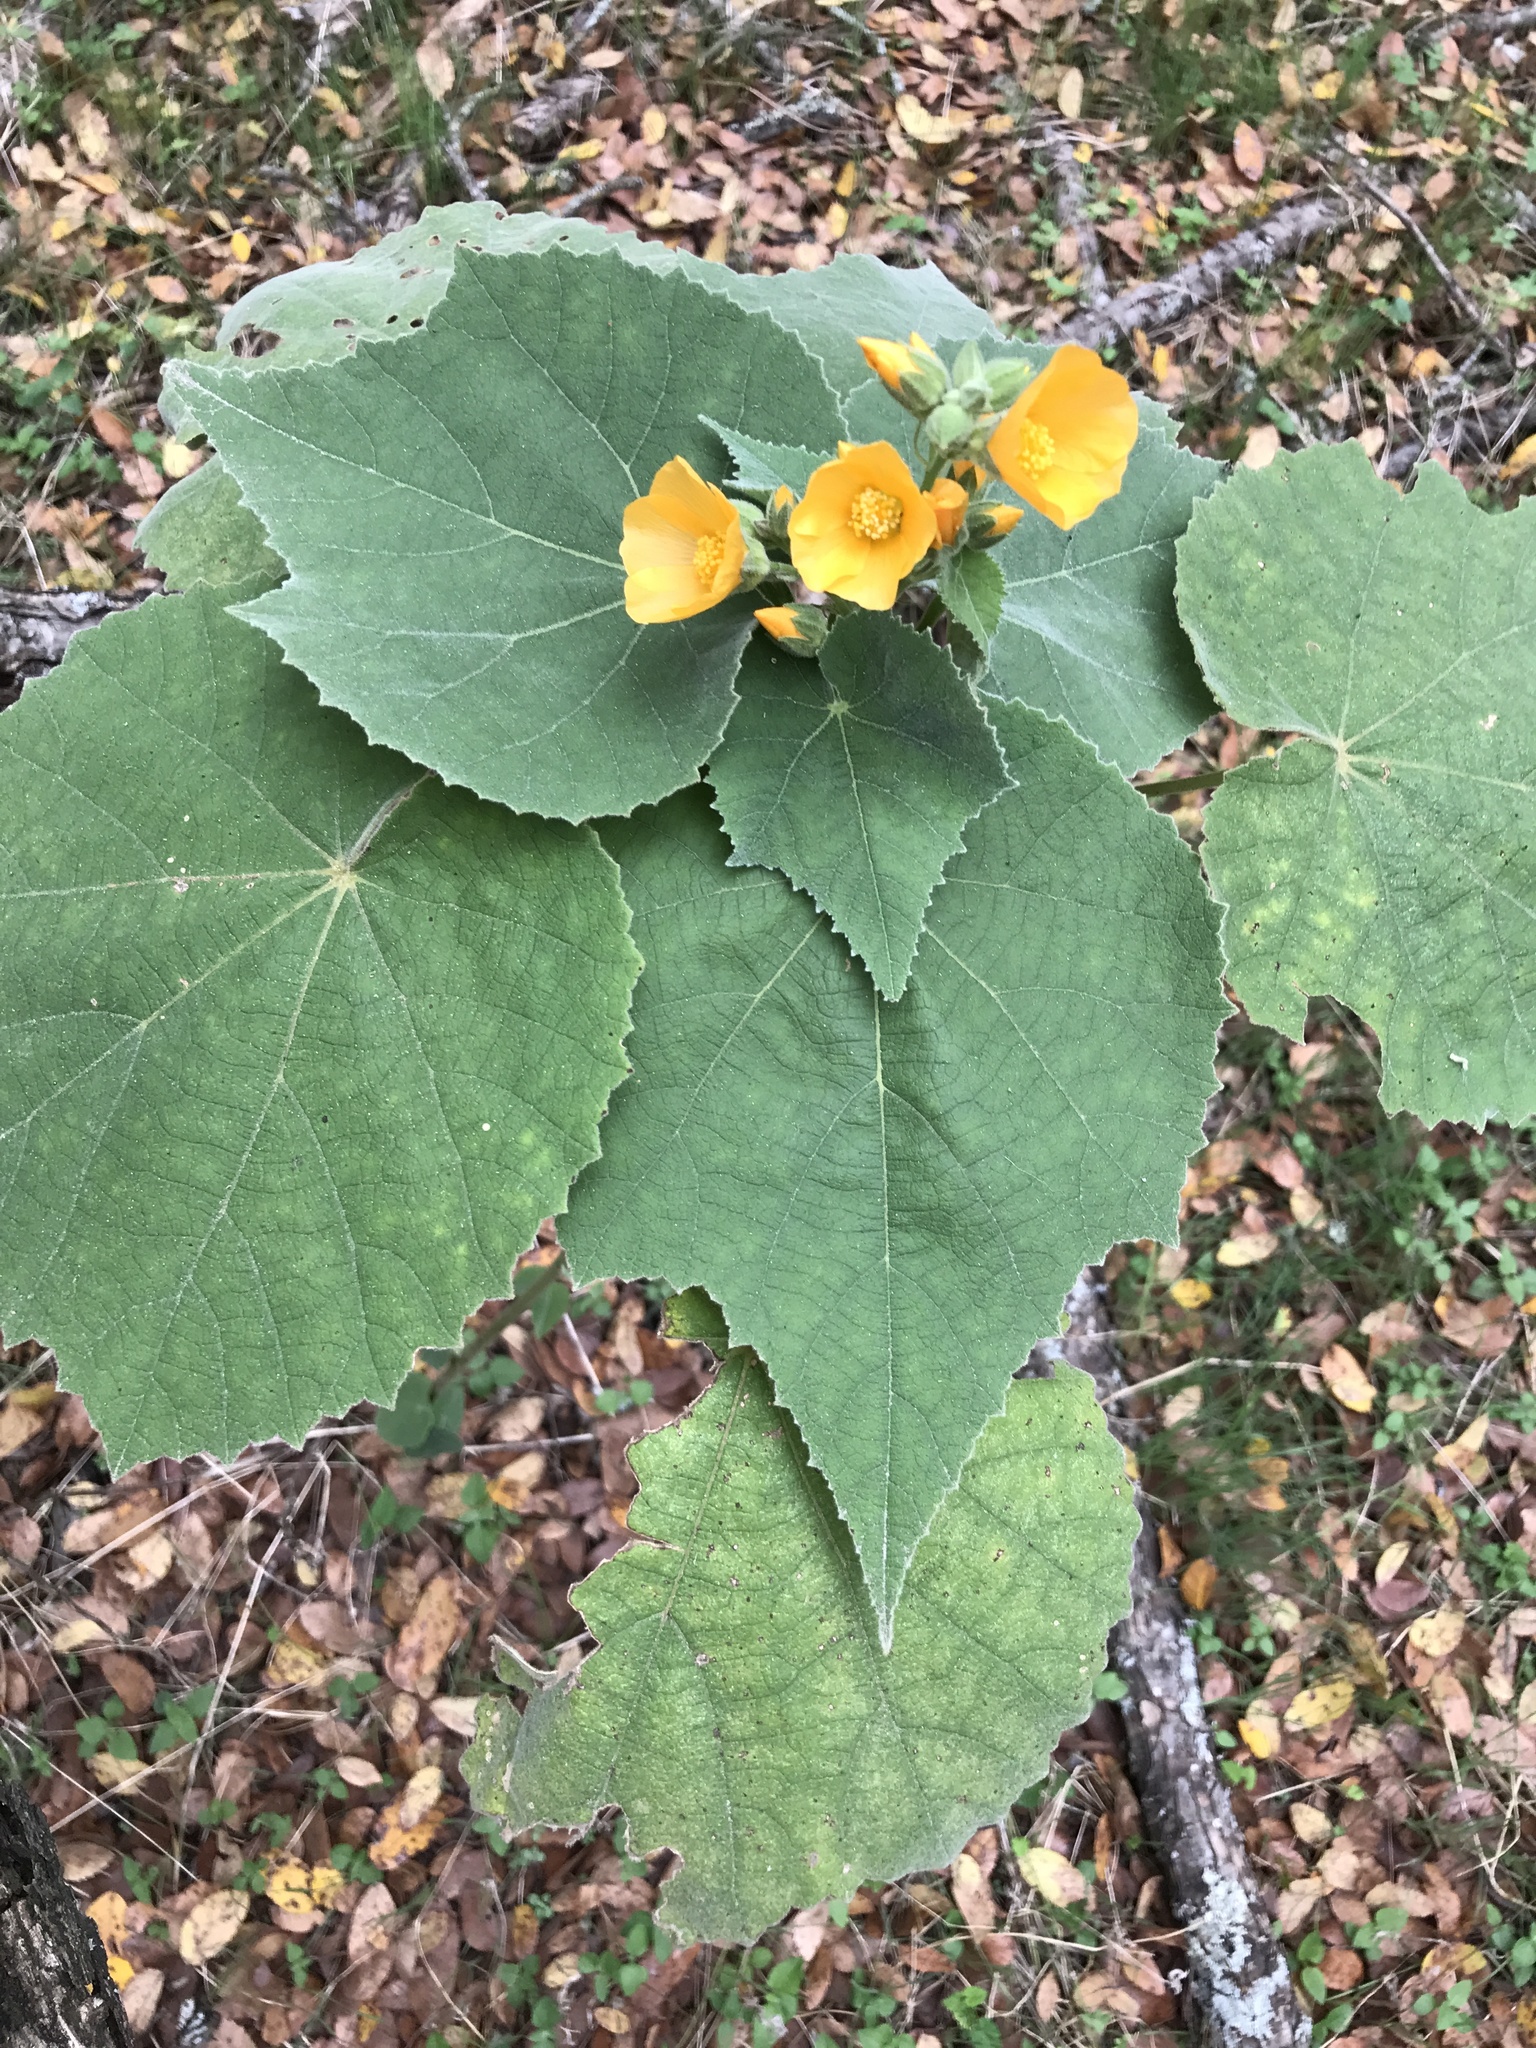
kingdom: Plantae
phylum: Tracheophyta
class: Magnoliopsida
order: Malvales
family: Malvaceae
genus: Allowissadula
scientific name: Allowissadula holosericea
